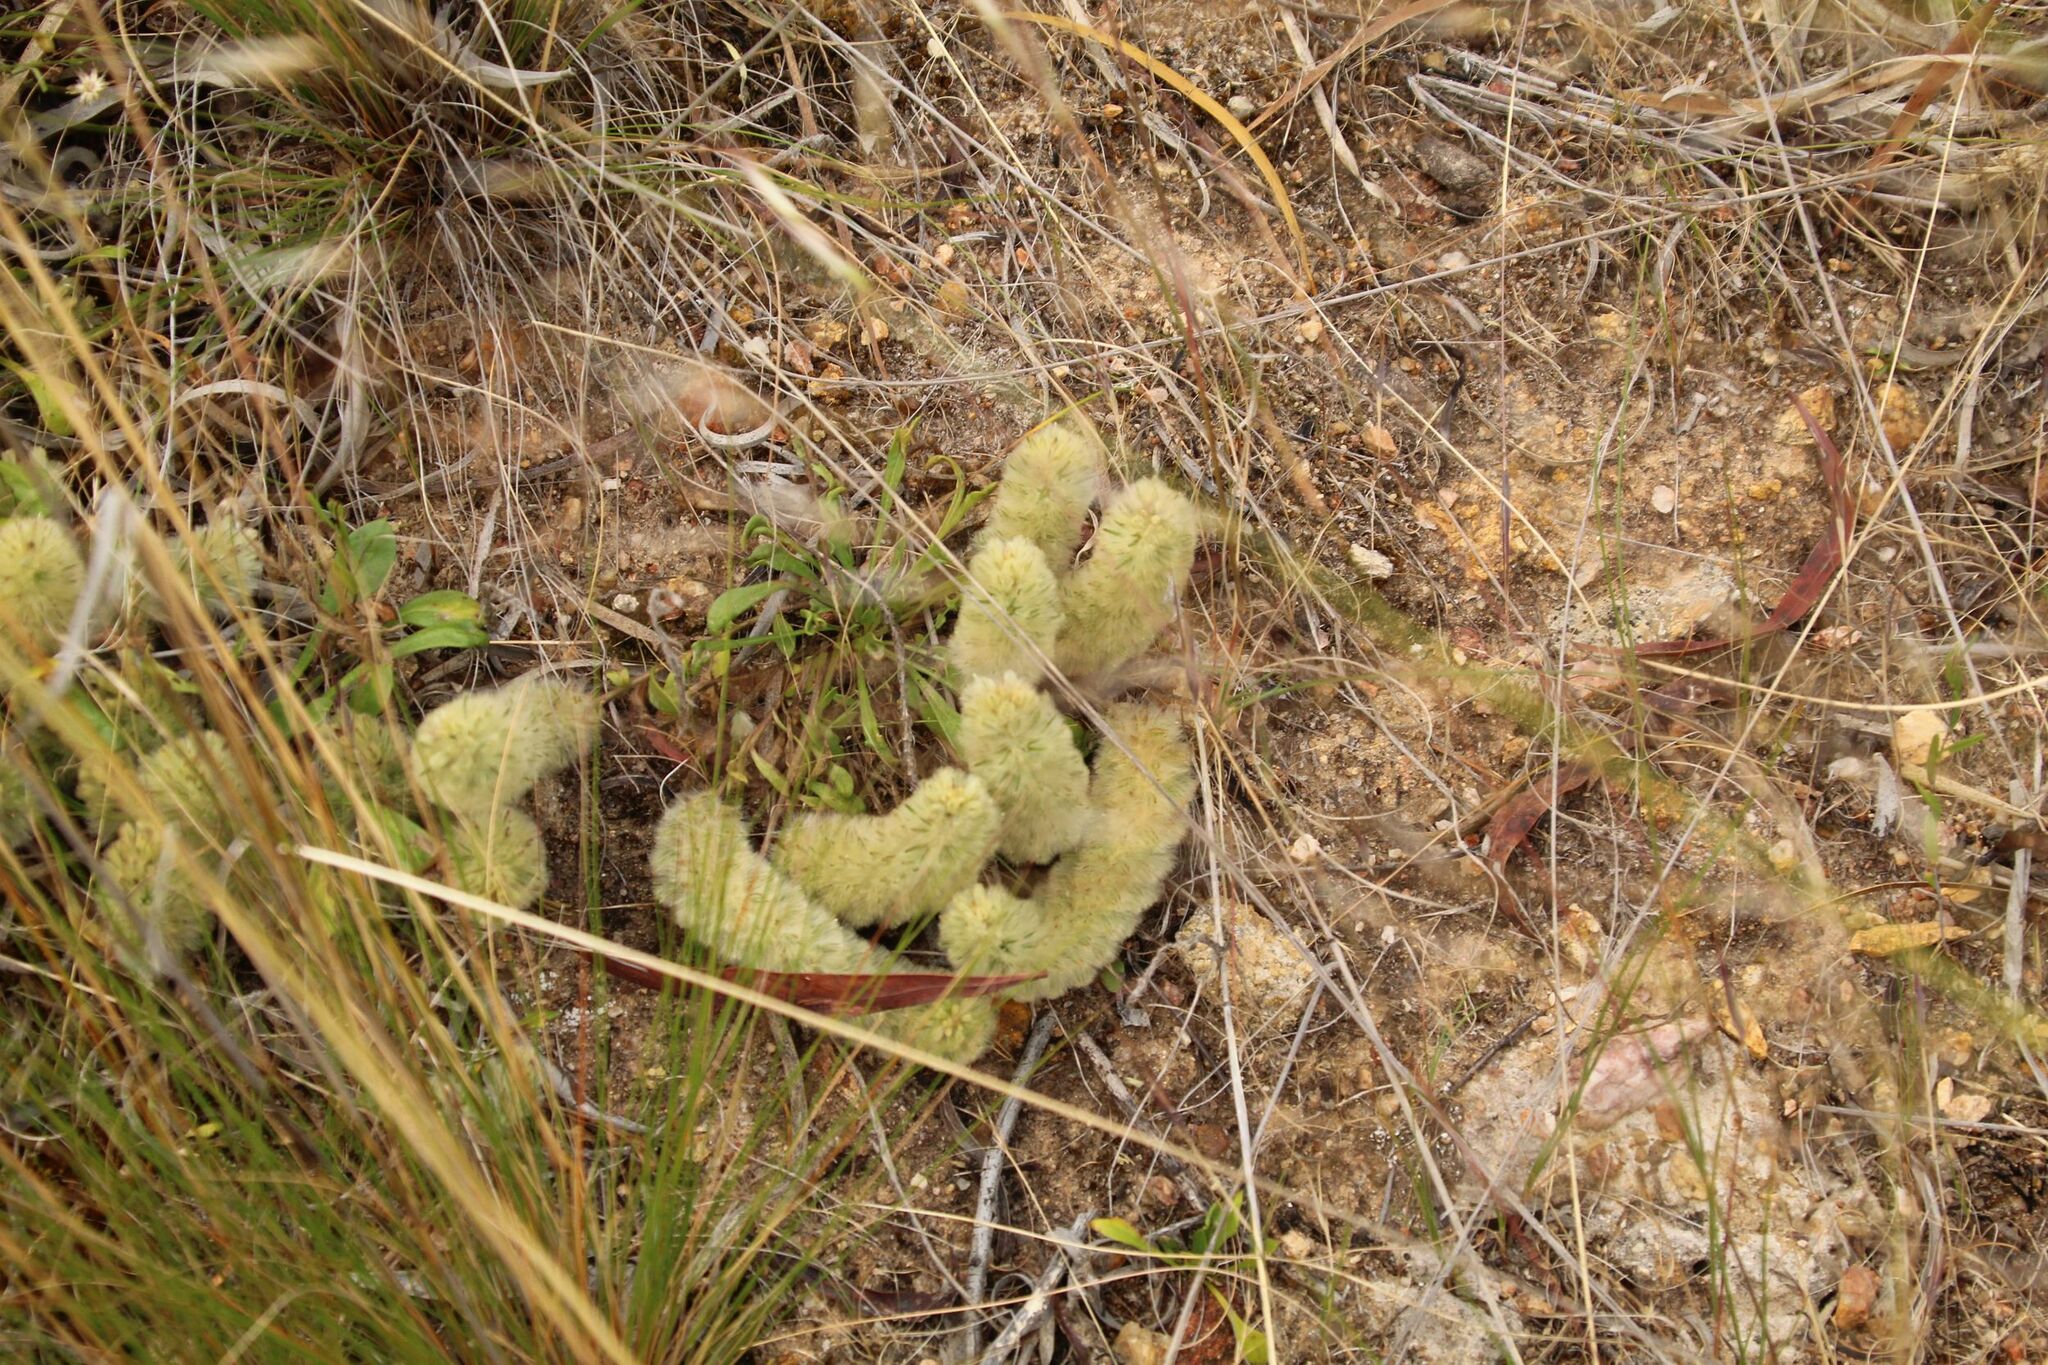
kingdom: Plantae
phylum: Tracheophyta
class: Magnoliopsida
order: Caryophyllales
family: Amaranthaceae
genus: Ptilotus
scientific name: Ptilotus spathulatus
